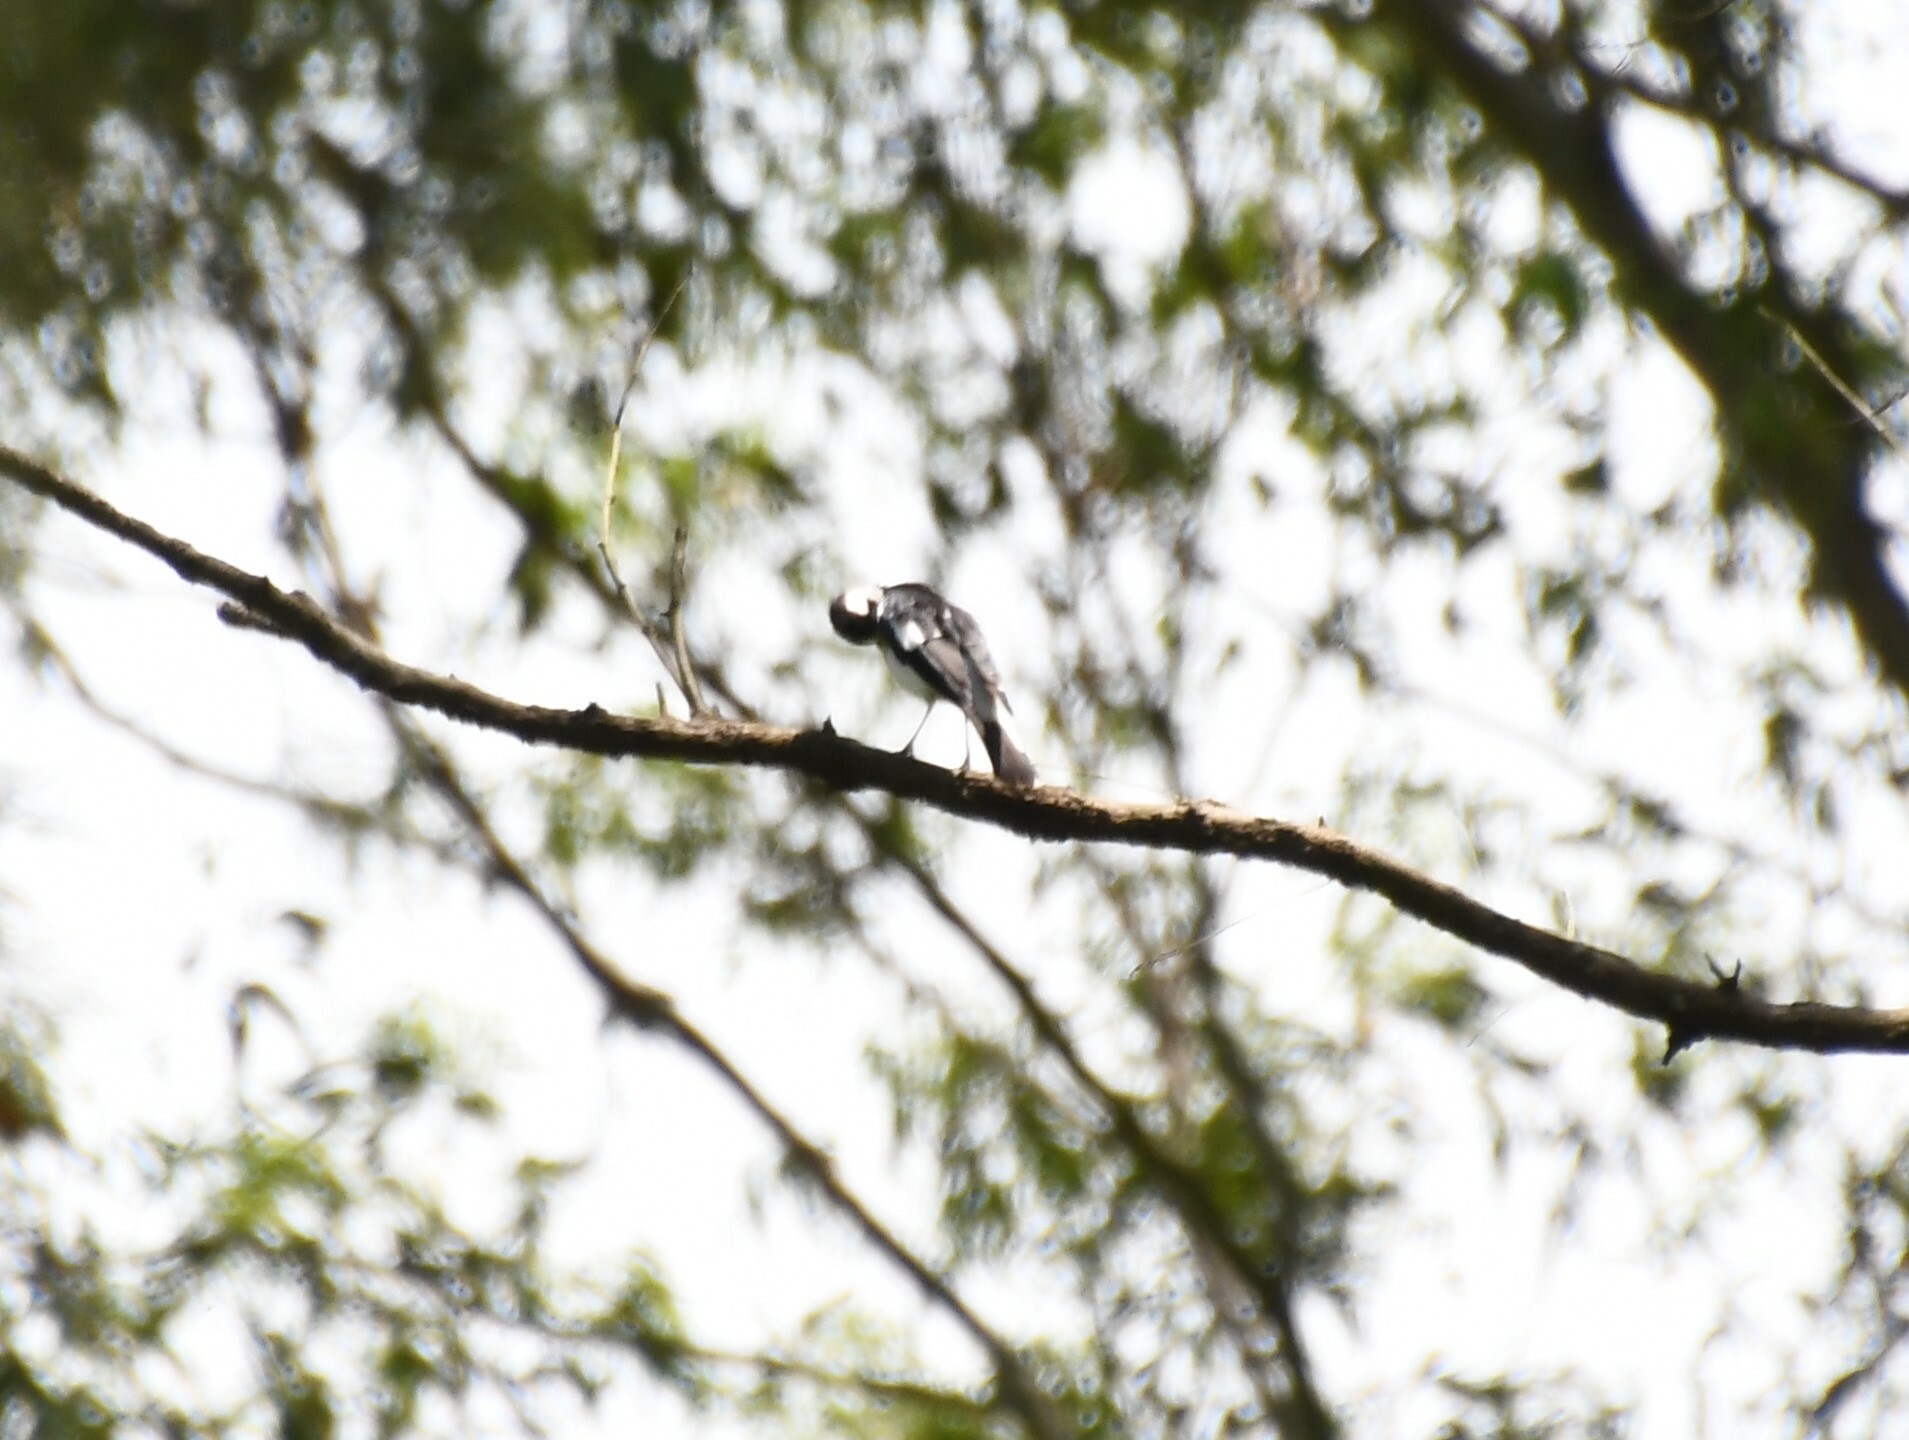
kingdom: Animalia
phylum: Chordata
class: Aves
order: Passeriformes
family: Monarchidae
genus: Grallina
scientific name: Grallina cyanoleuca
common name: Magpie-lark
